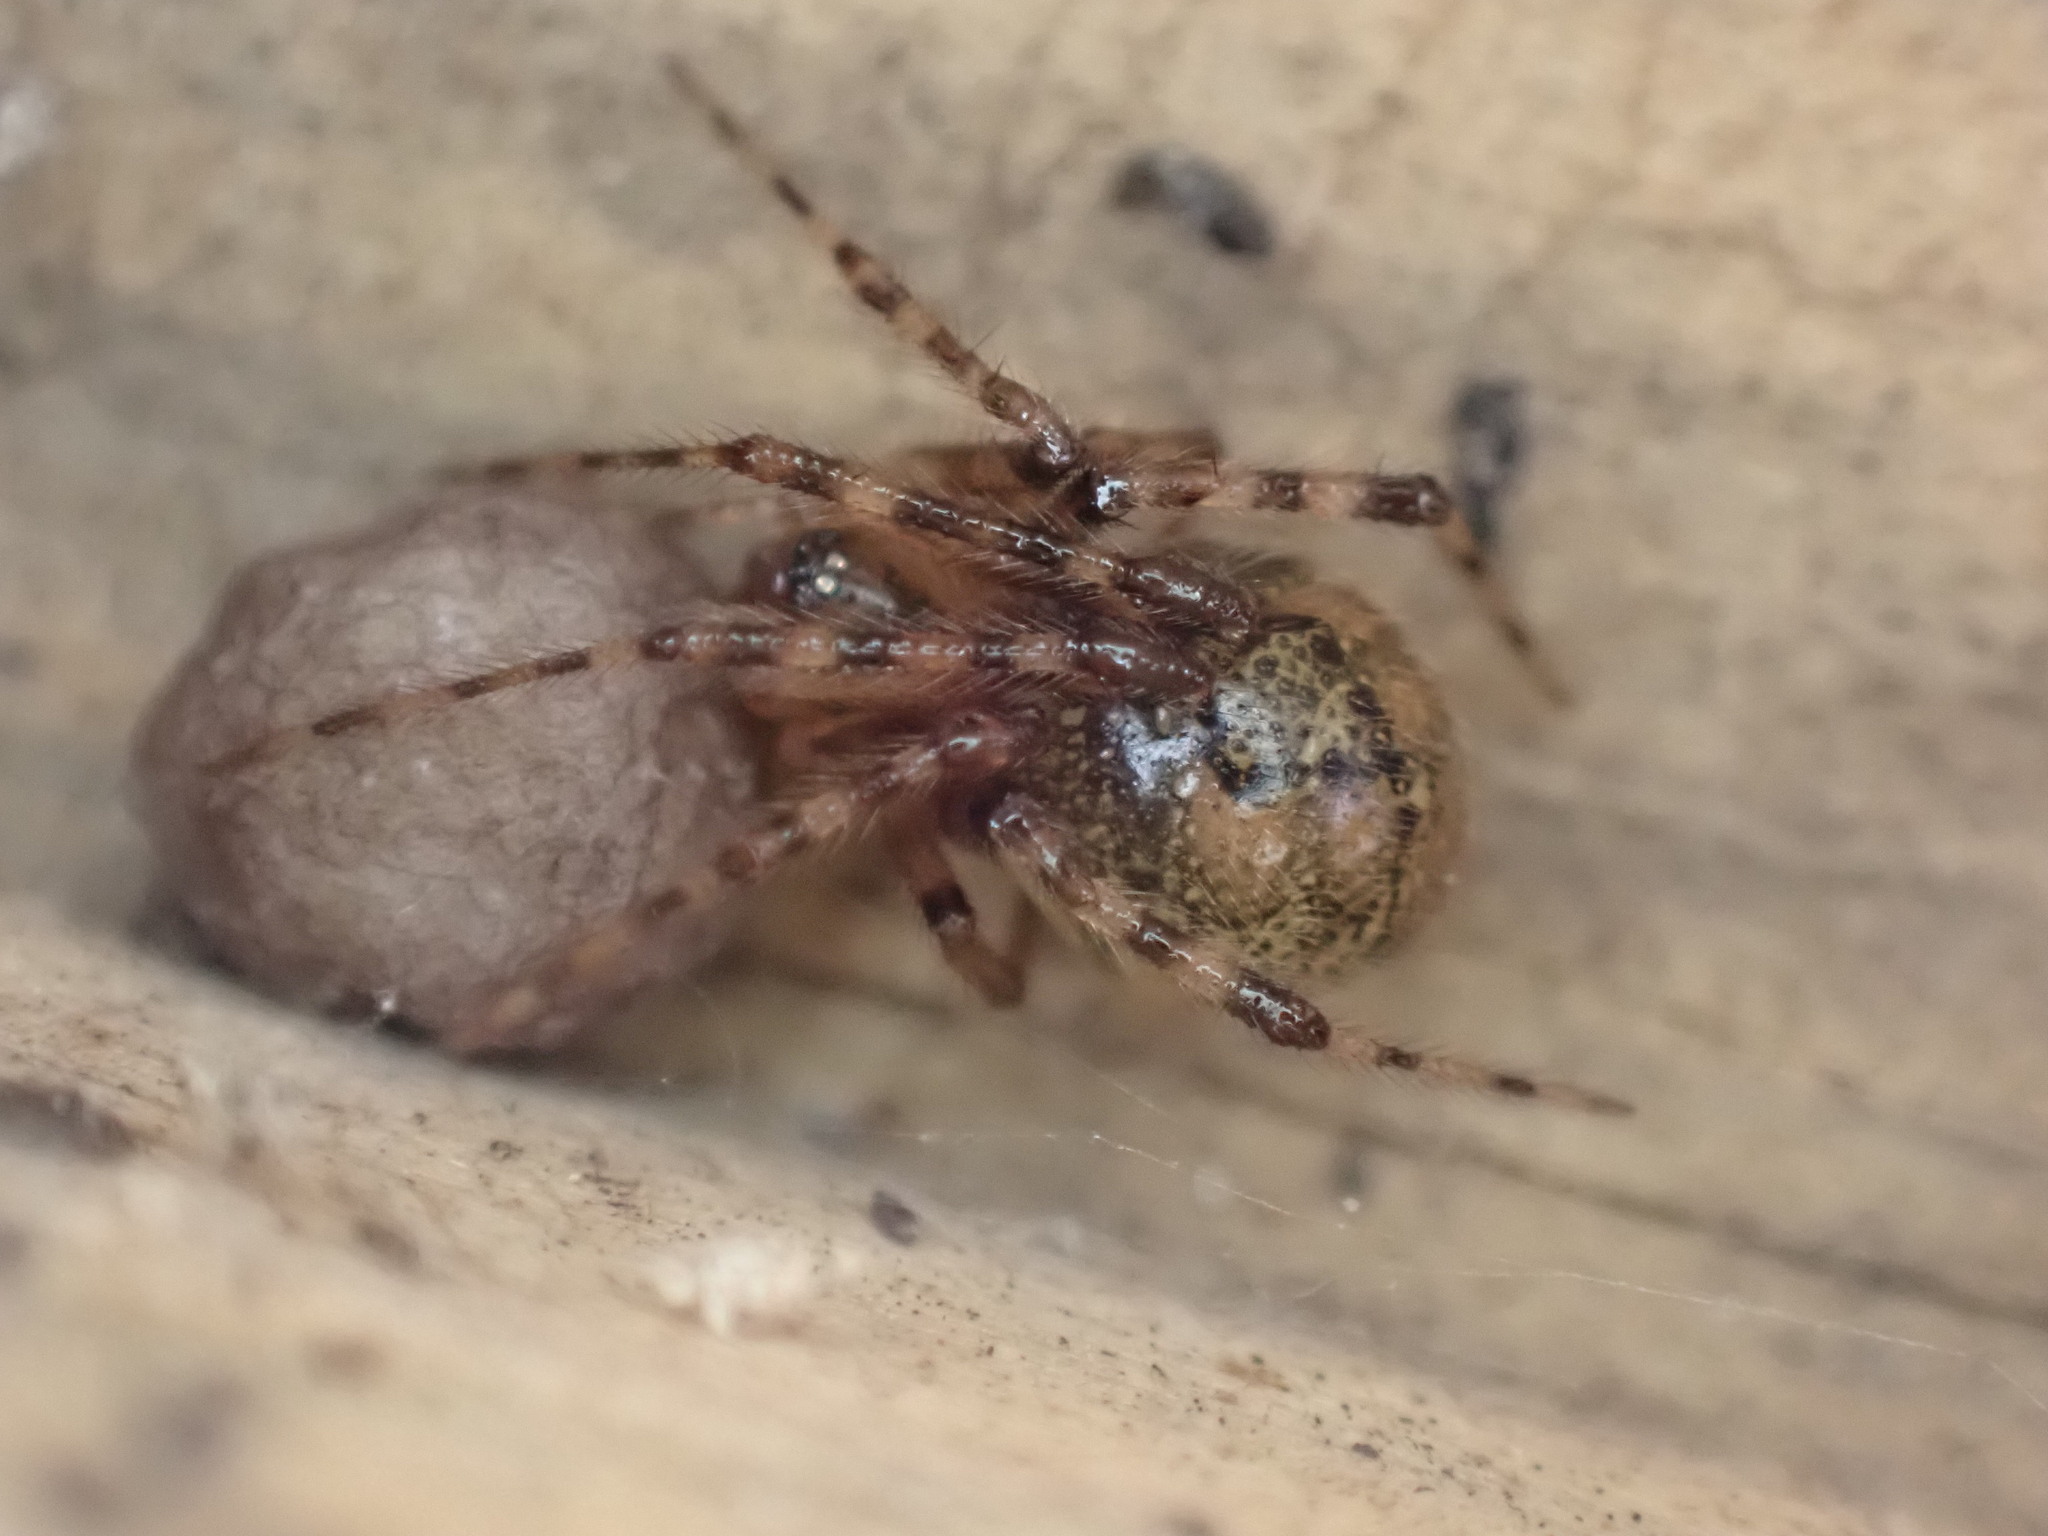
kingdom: Animalia
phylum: Arthropoda
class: Arachnida
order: Araneae
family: Theridiidae
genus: Cryptachaea
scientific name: Cryptachaea veruculata
